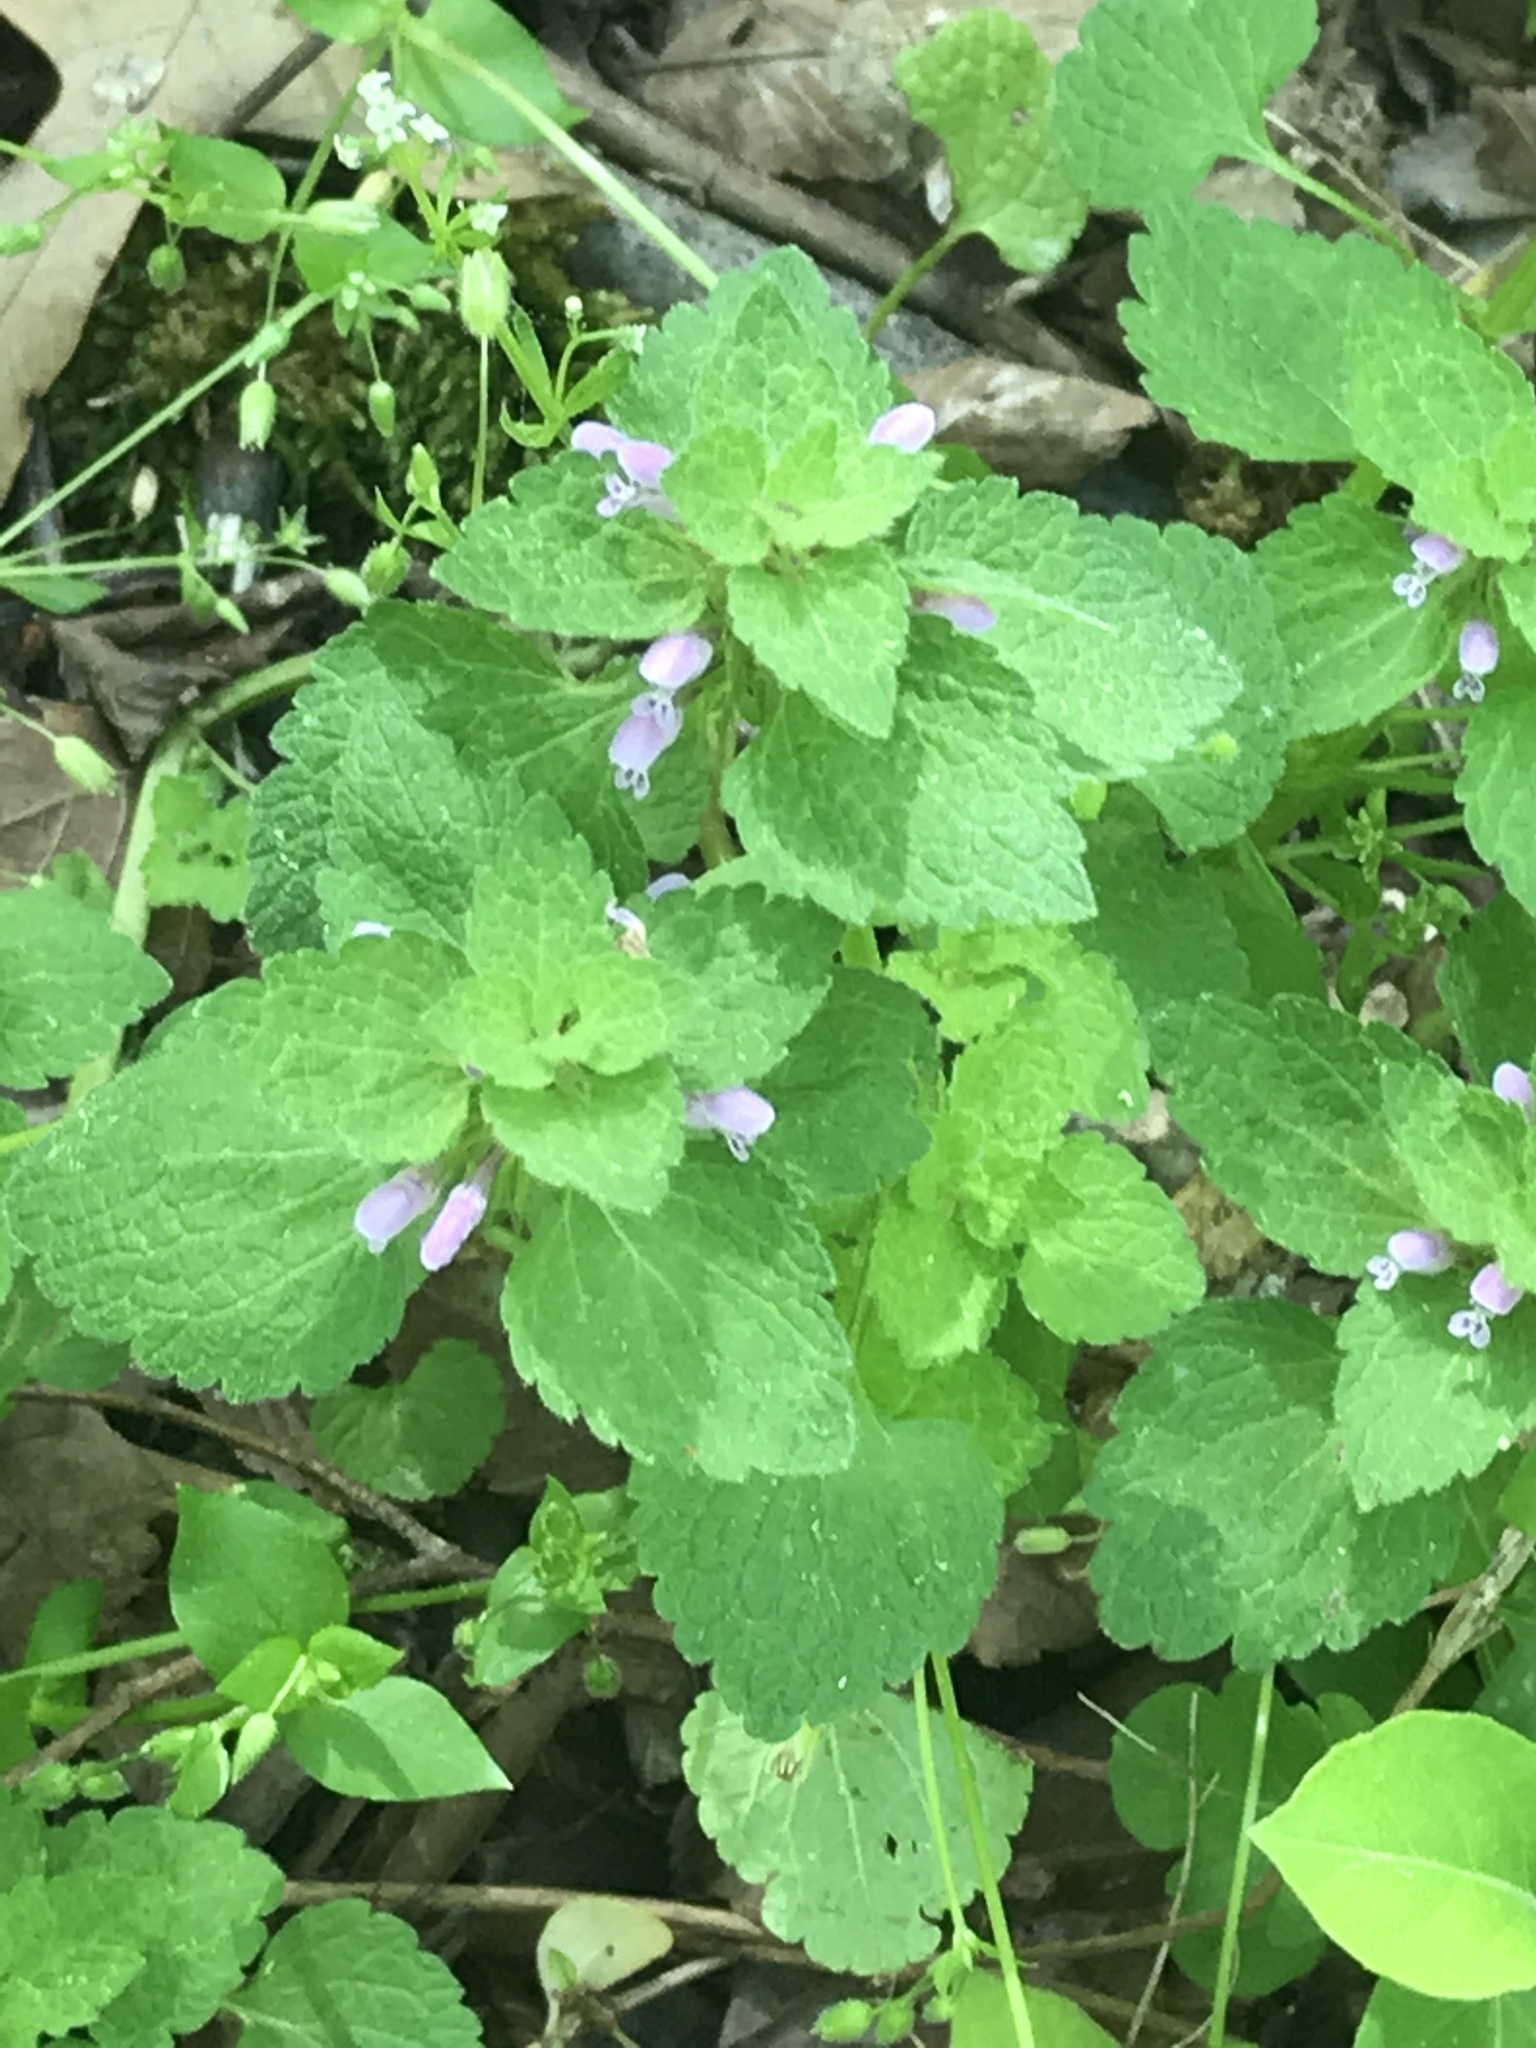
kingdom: Plantae
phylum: Tracheophyta
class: Magnoliopsida
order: Lamiales
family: Lamiaceae
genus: Lamium
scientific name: Lamium purpureum
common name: Red dead-nettle
